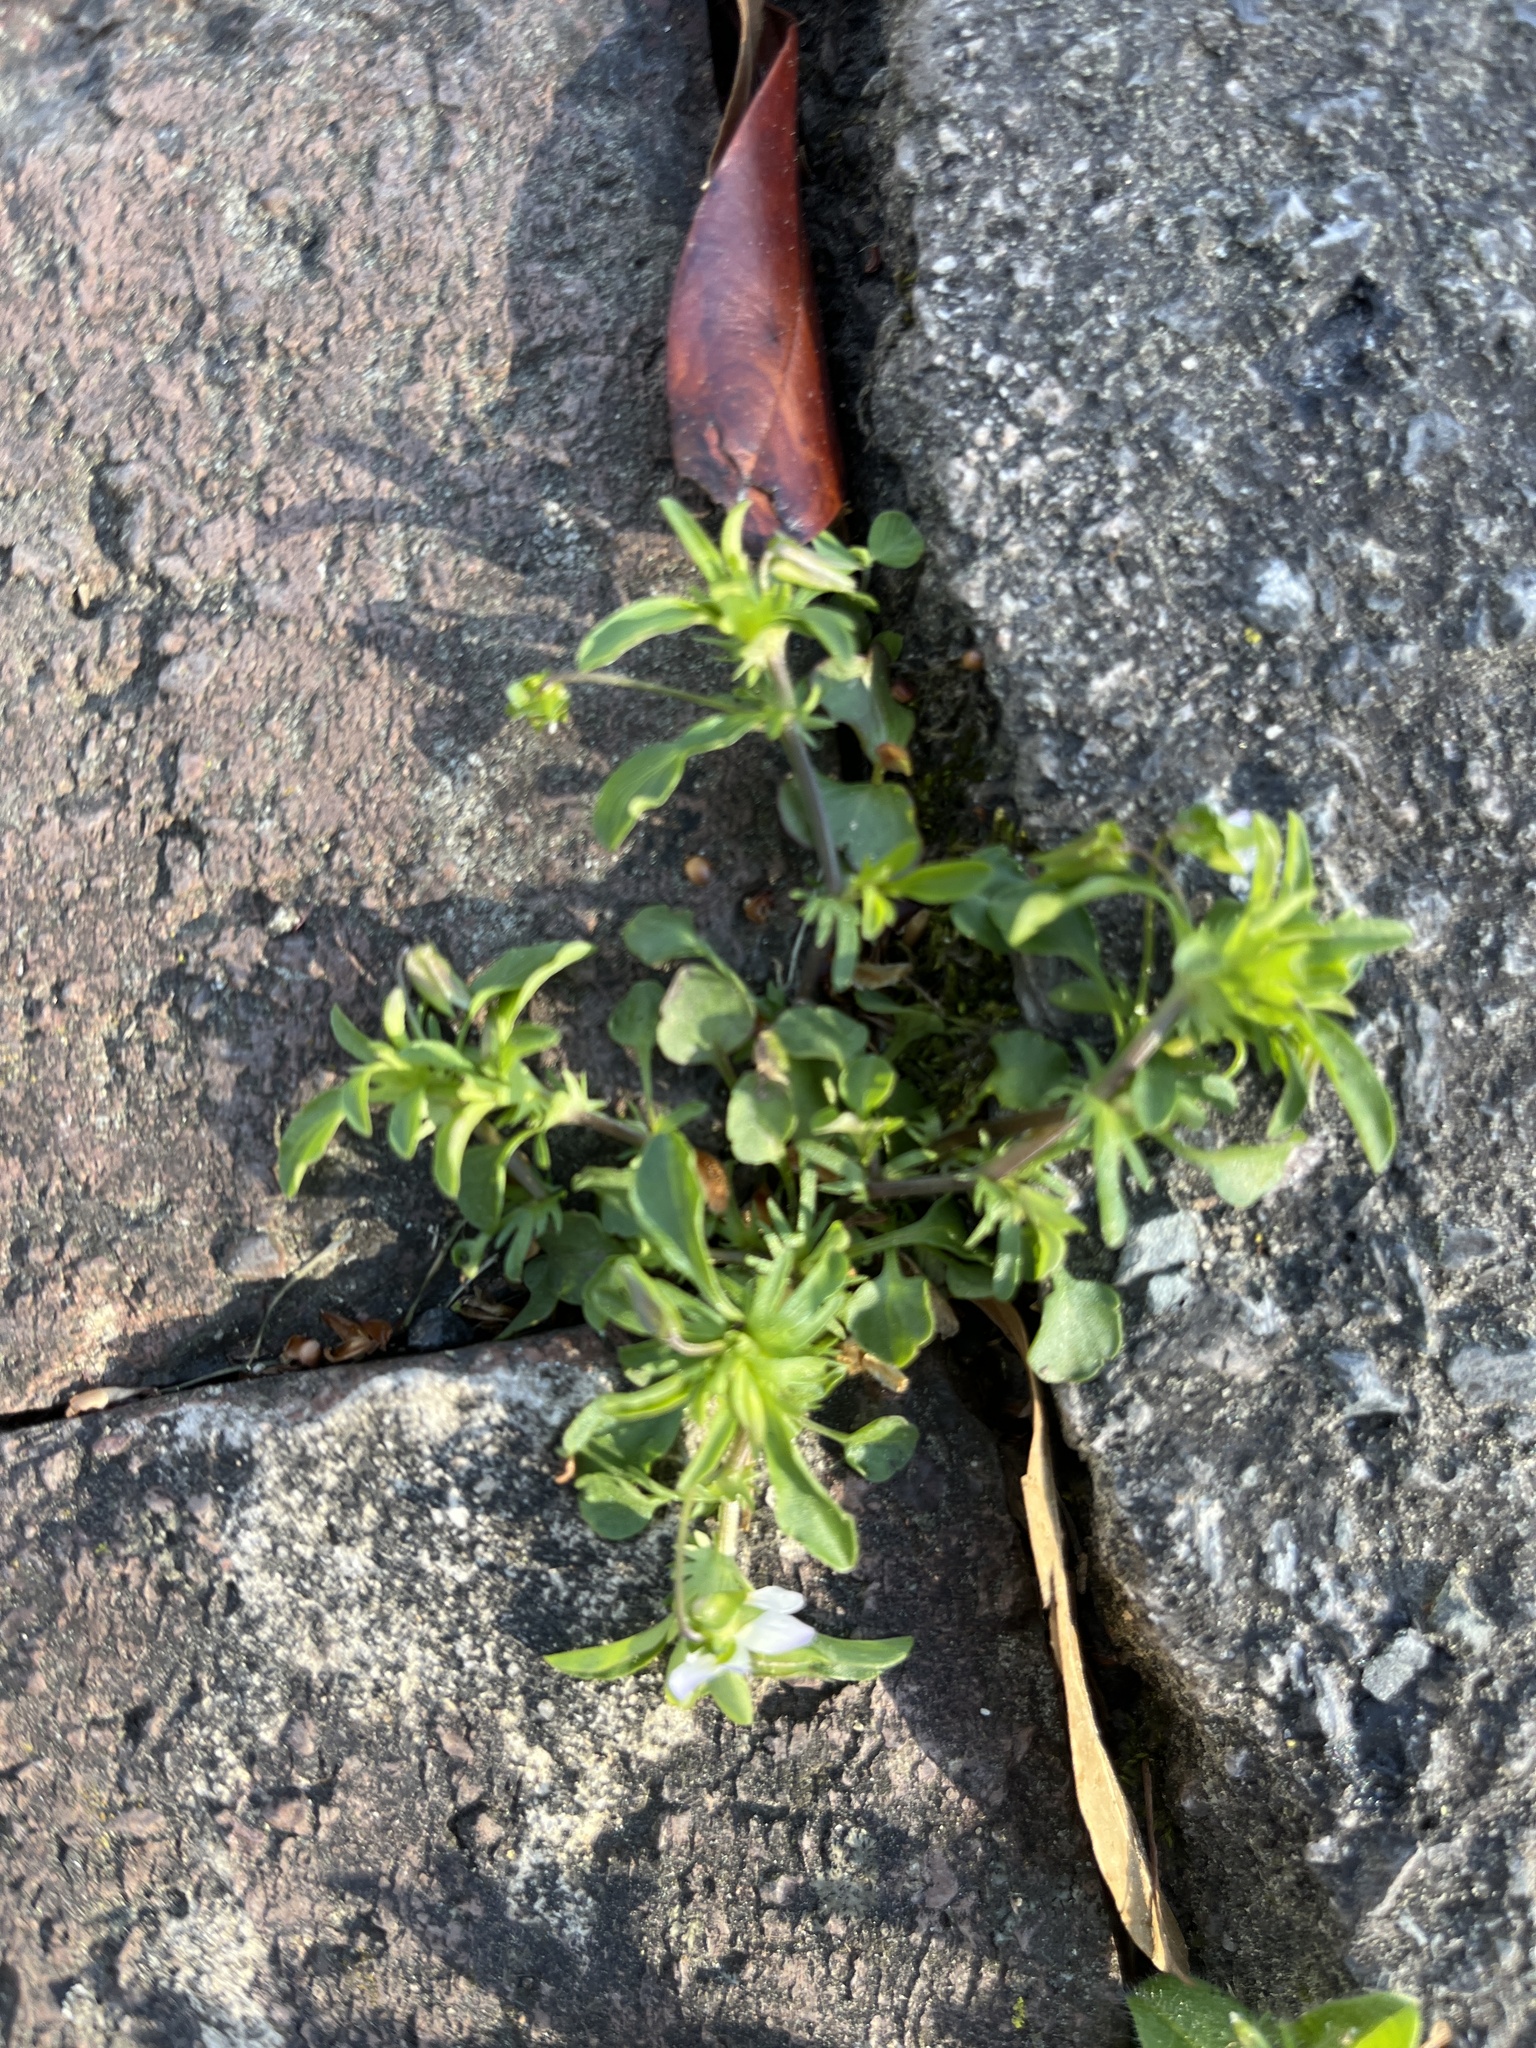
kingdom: Plantae
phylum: Tracheophyta
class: Magnoliopsida
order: Malpighiales
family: Violaceae
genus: Viola
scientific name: Viola rafinesquei
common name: American field pansy
